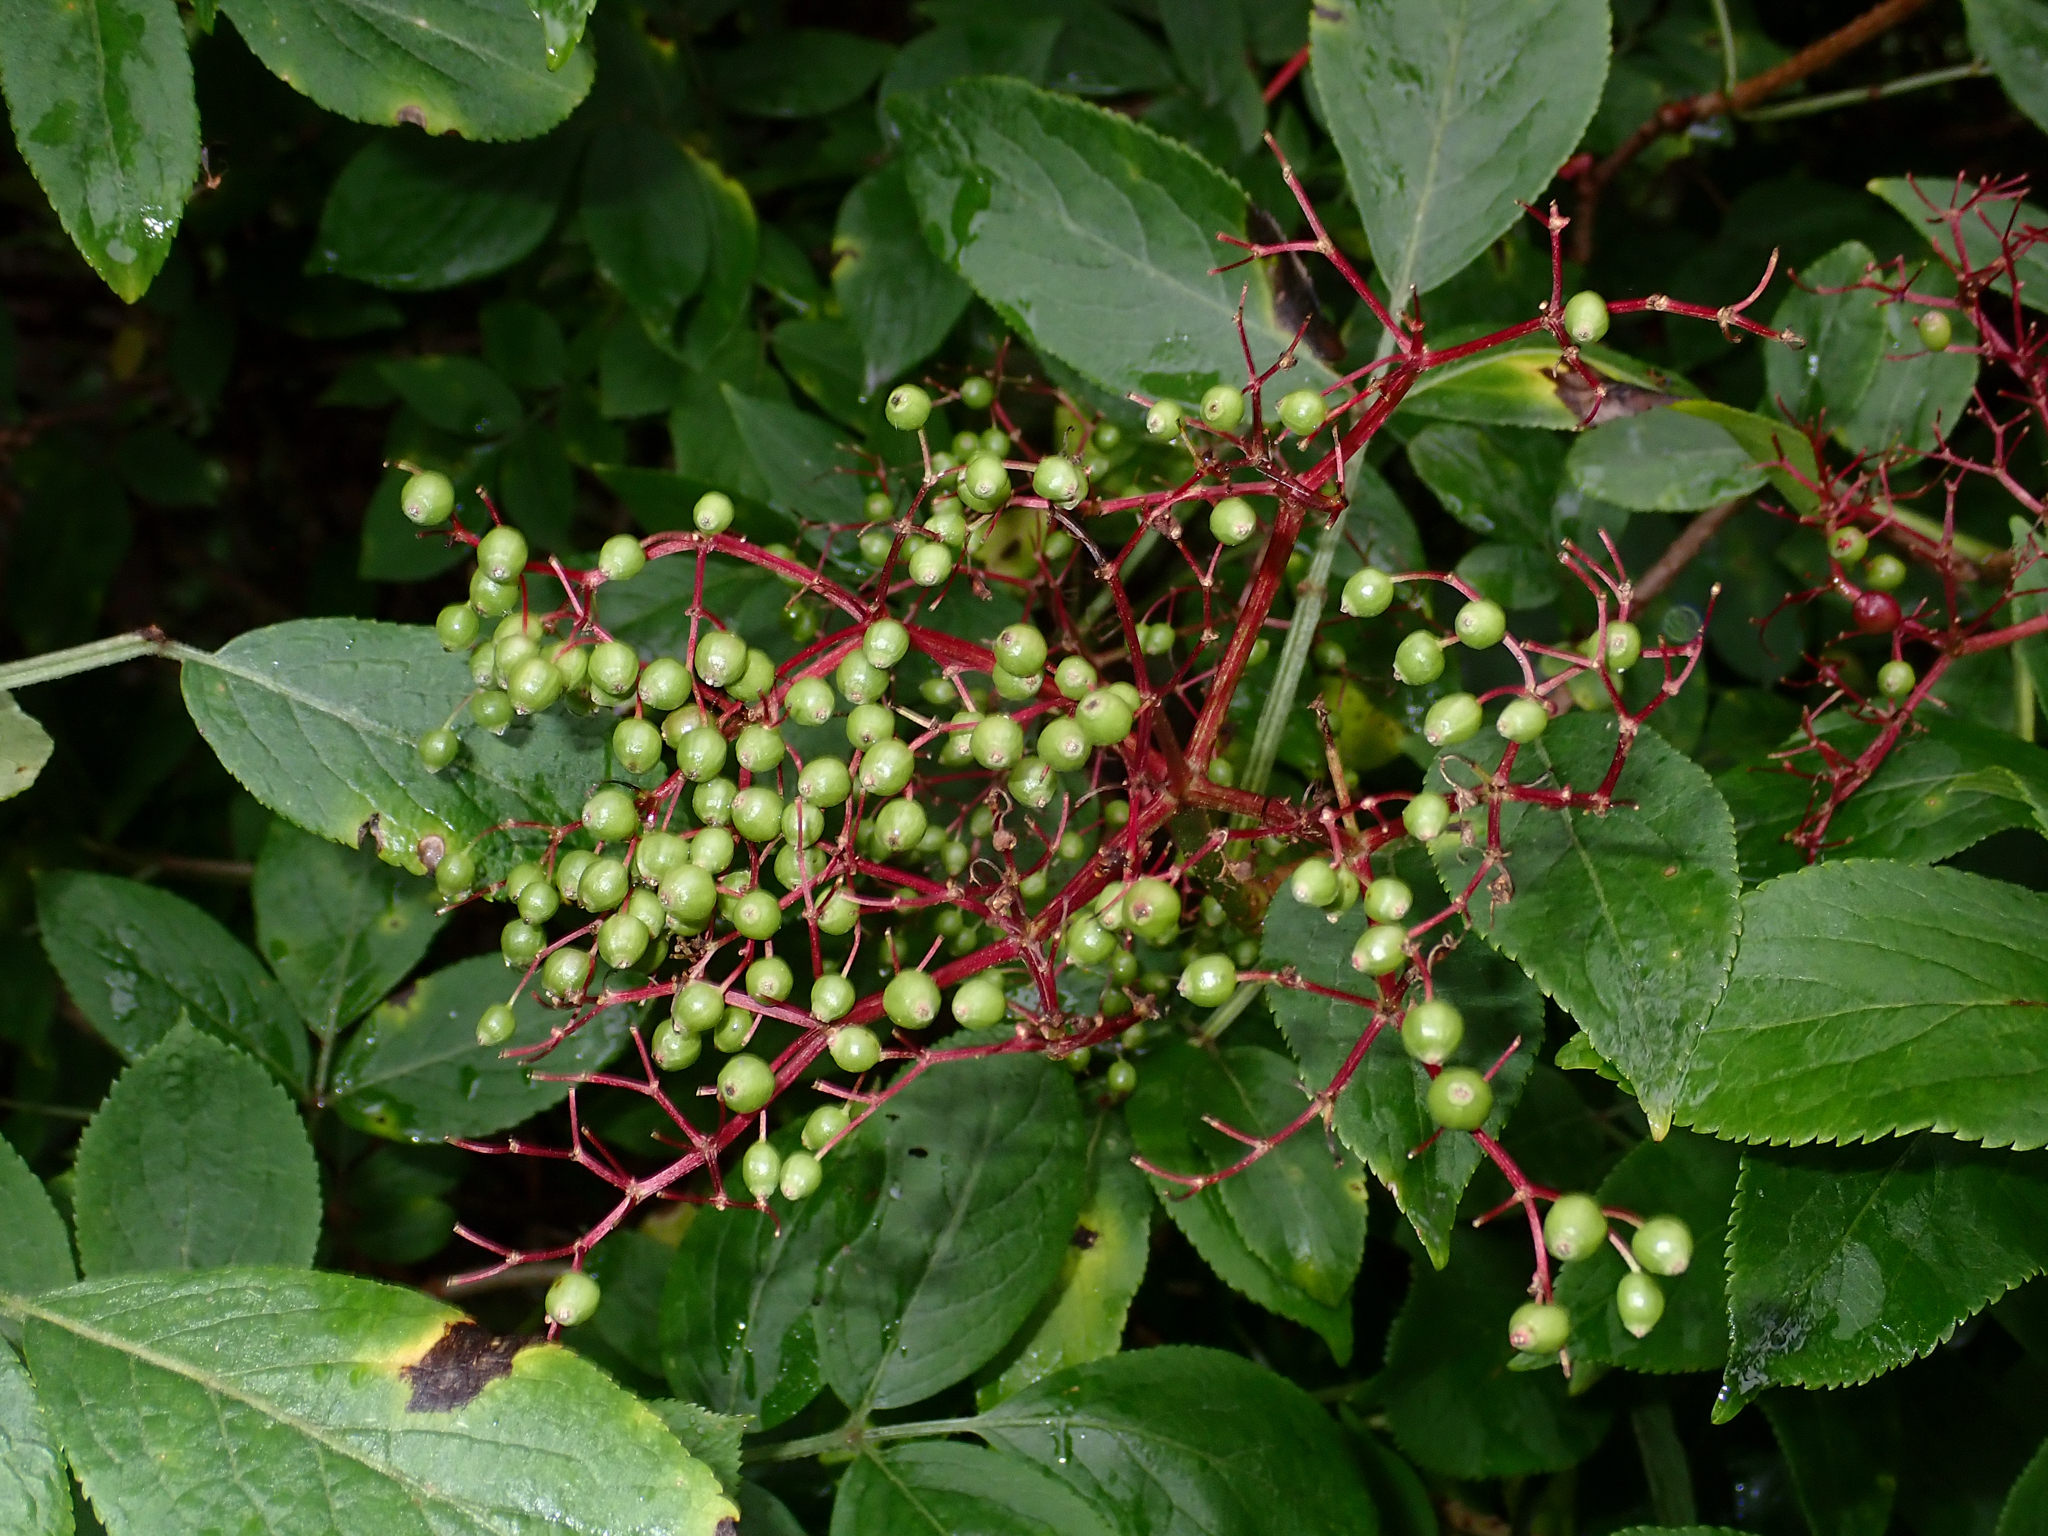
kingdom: Plantae
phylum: Tracheophyta
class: Magnoliopsida
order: Dipsacales
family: Viburnaceae
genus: Sambucus
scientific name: Sambucus nigra
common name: Elder
